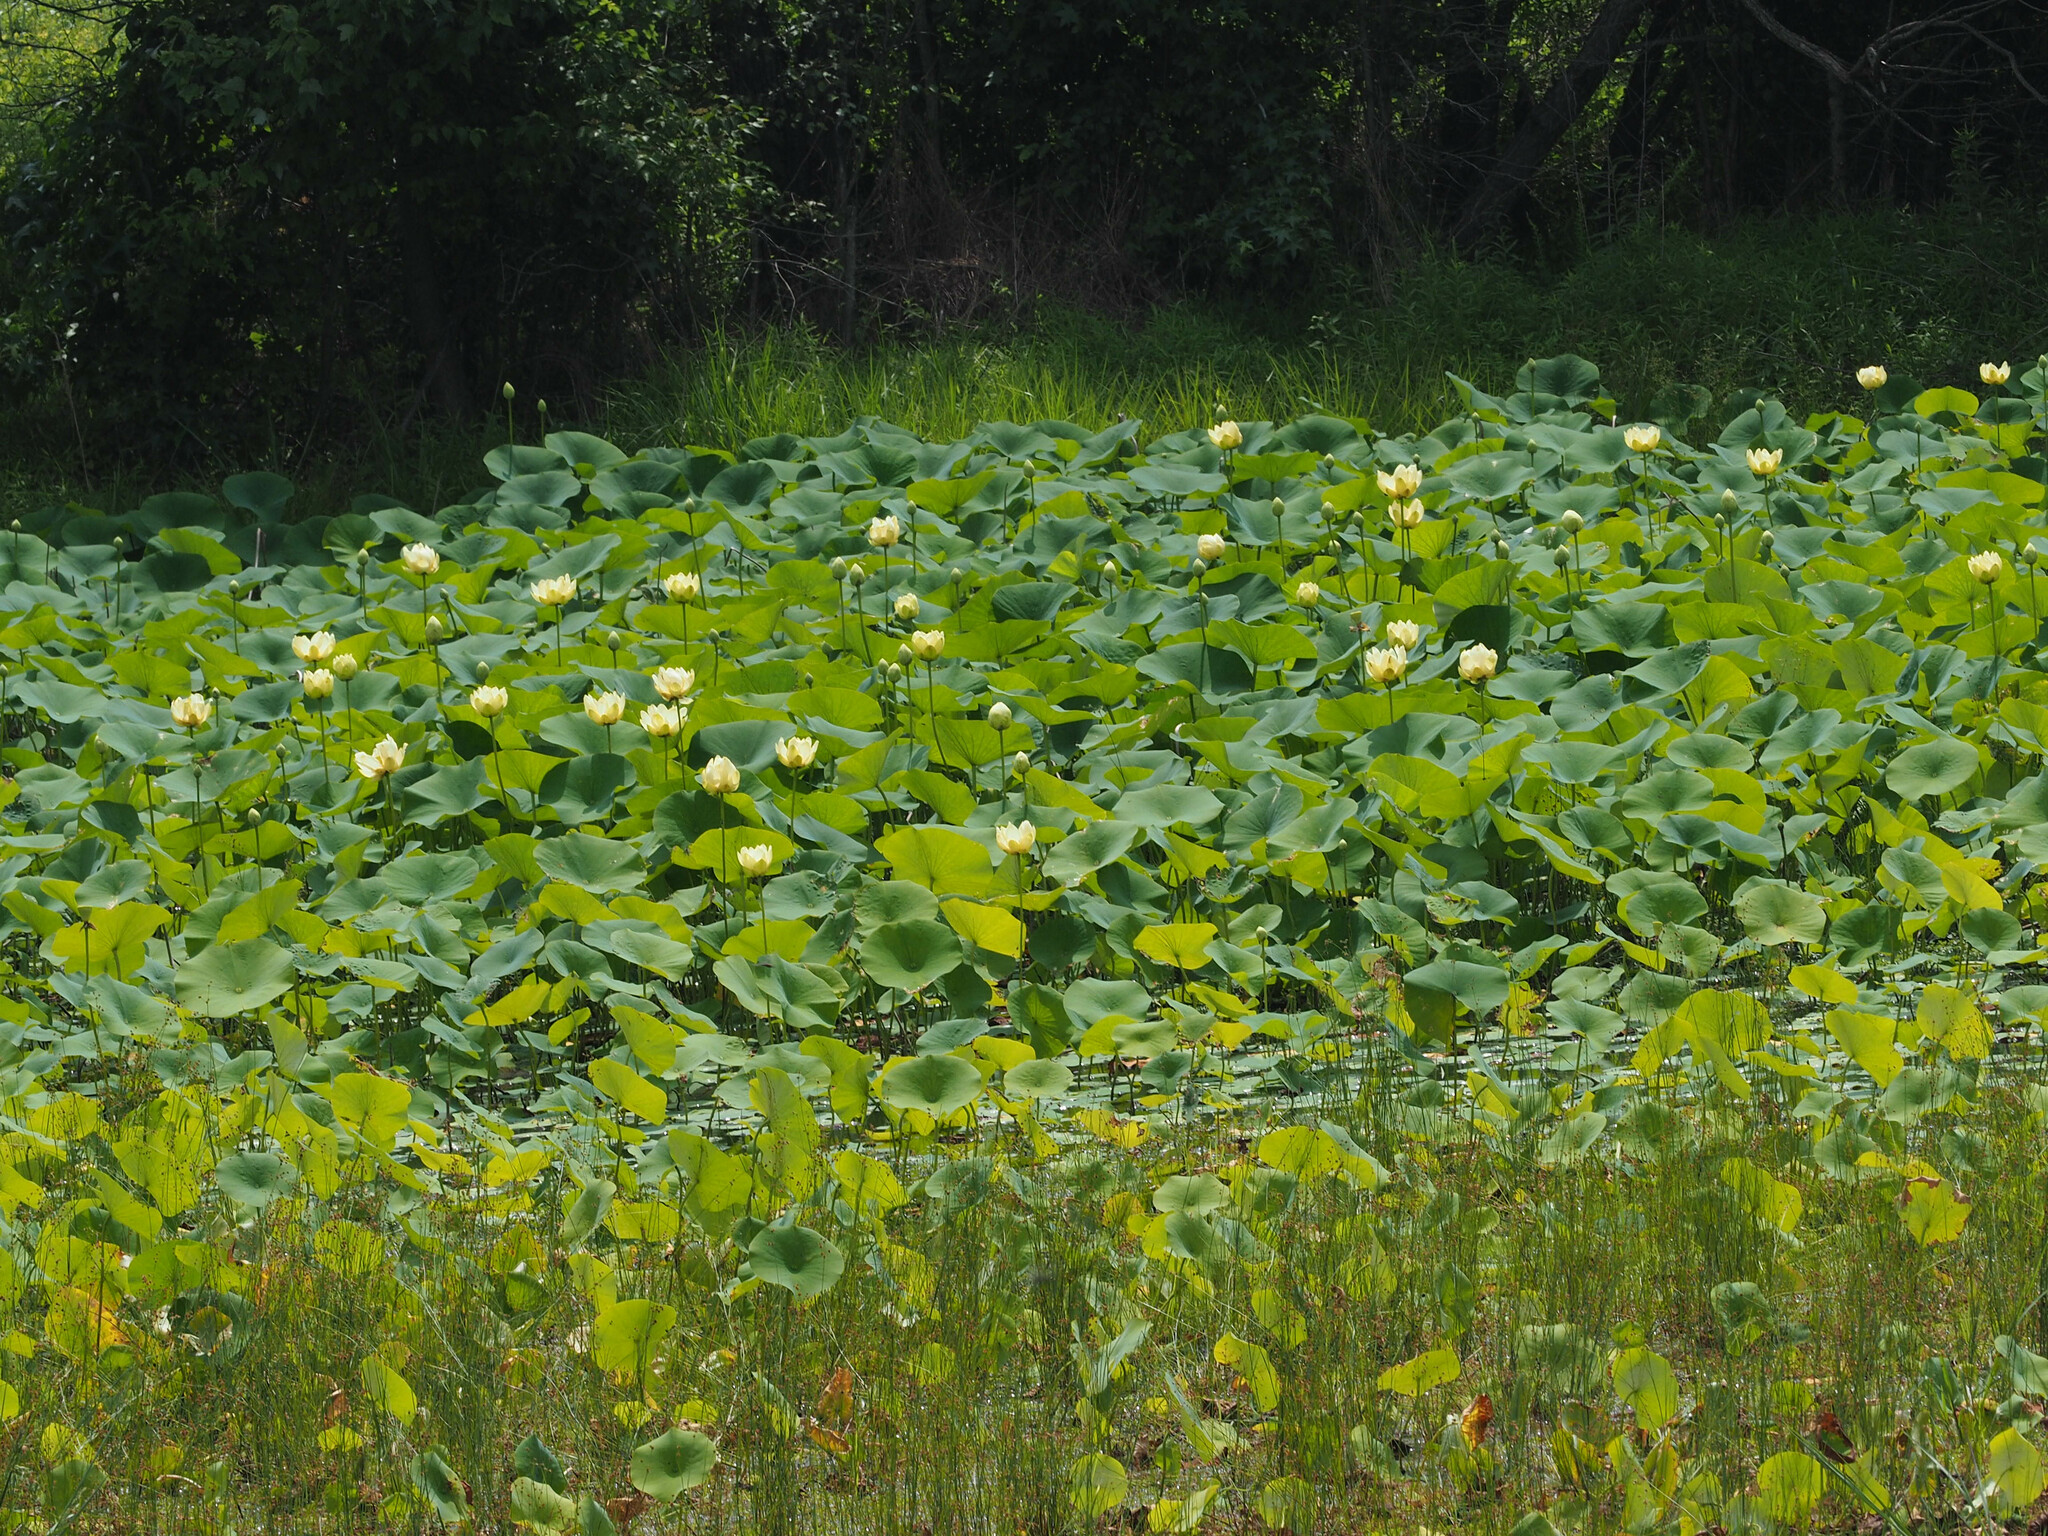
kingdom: Plantae
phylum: Tracheophyta
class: Magnoliopsida
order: Proteales
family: Nelumbonaceae
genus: Nelumbo
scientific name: Nelumbo lutea
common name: American lotus
